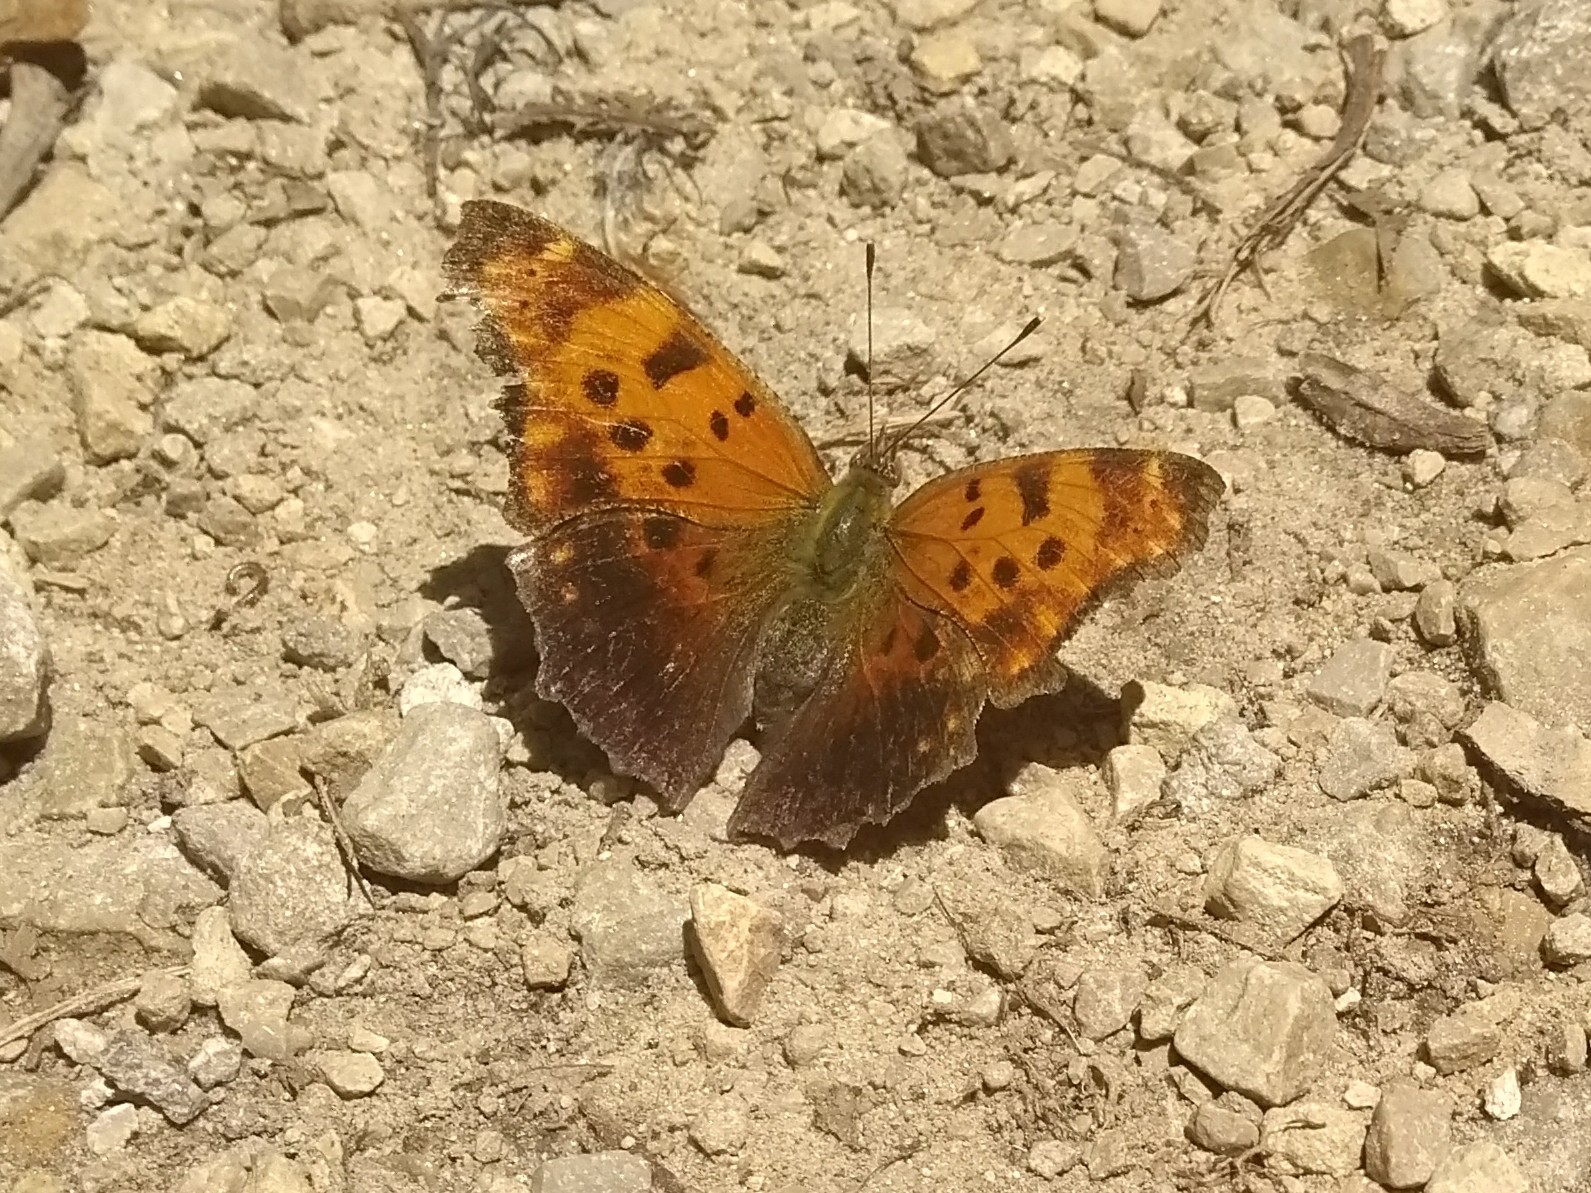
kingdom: Animalia
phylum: Arthropoda
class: Insecta
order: Lepidoptera
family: Nymphalidae
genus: Polygonia
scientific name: Polygonia comma
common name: Eastern comma
